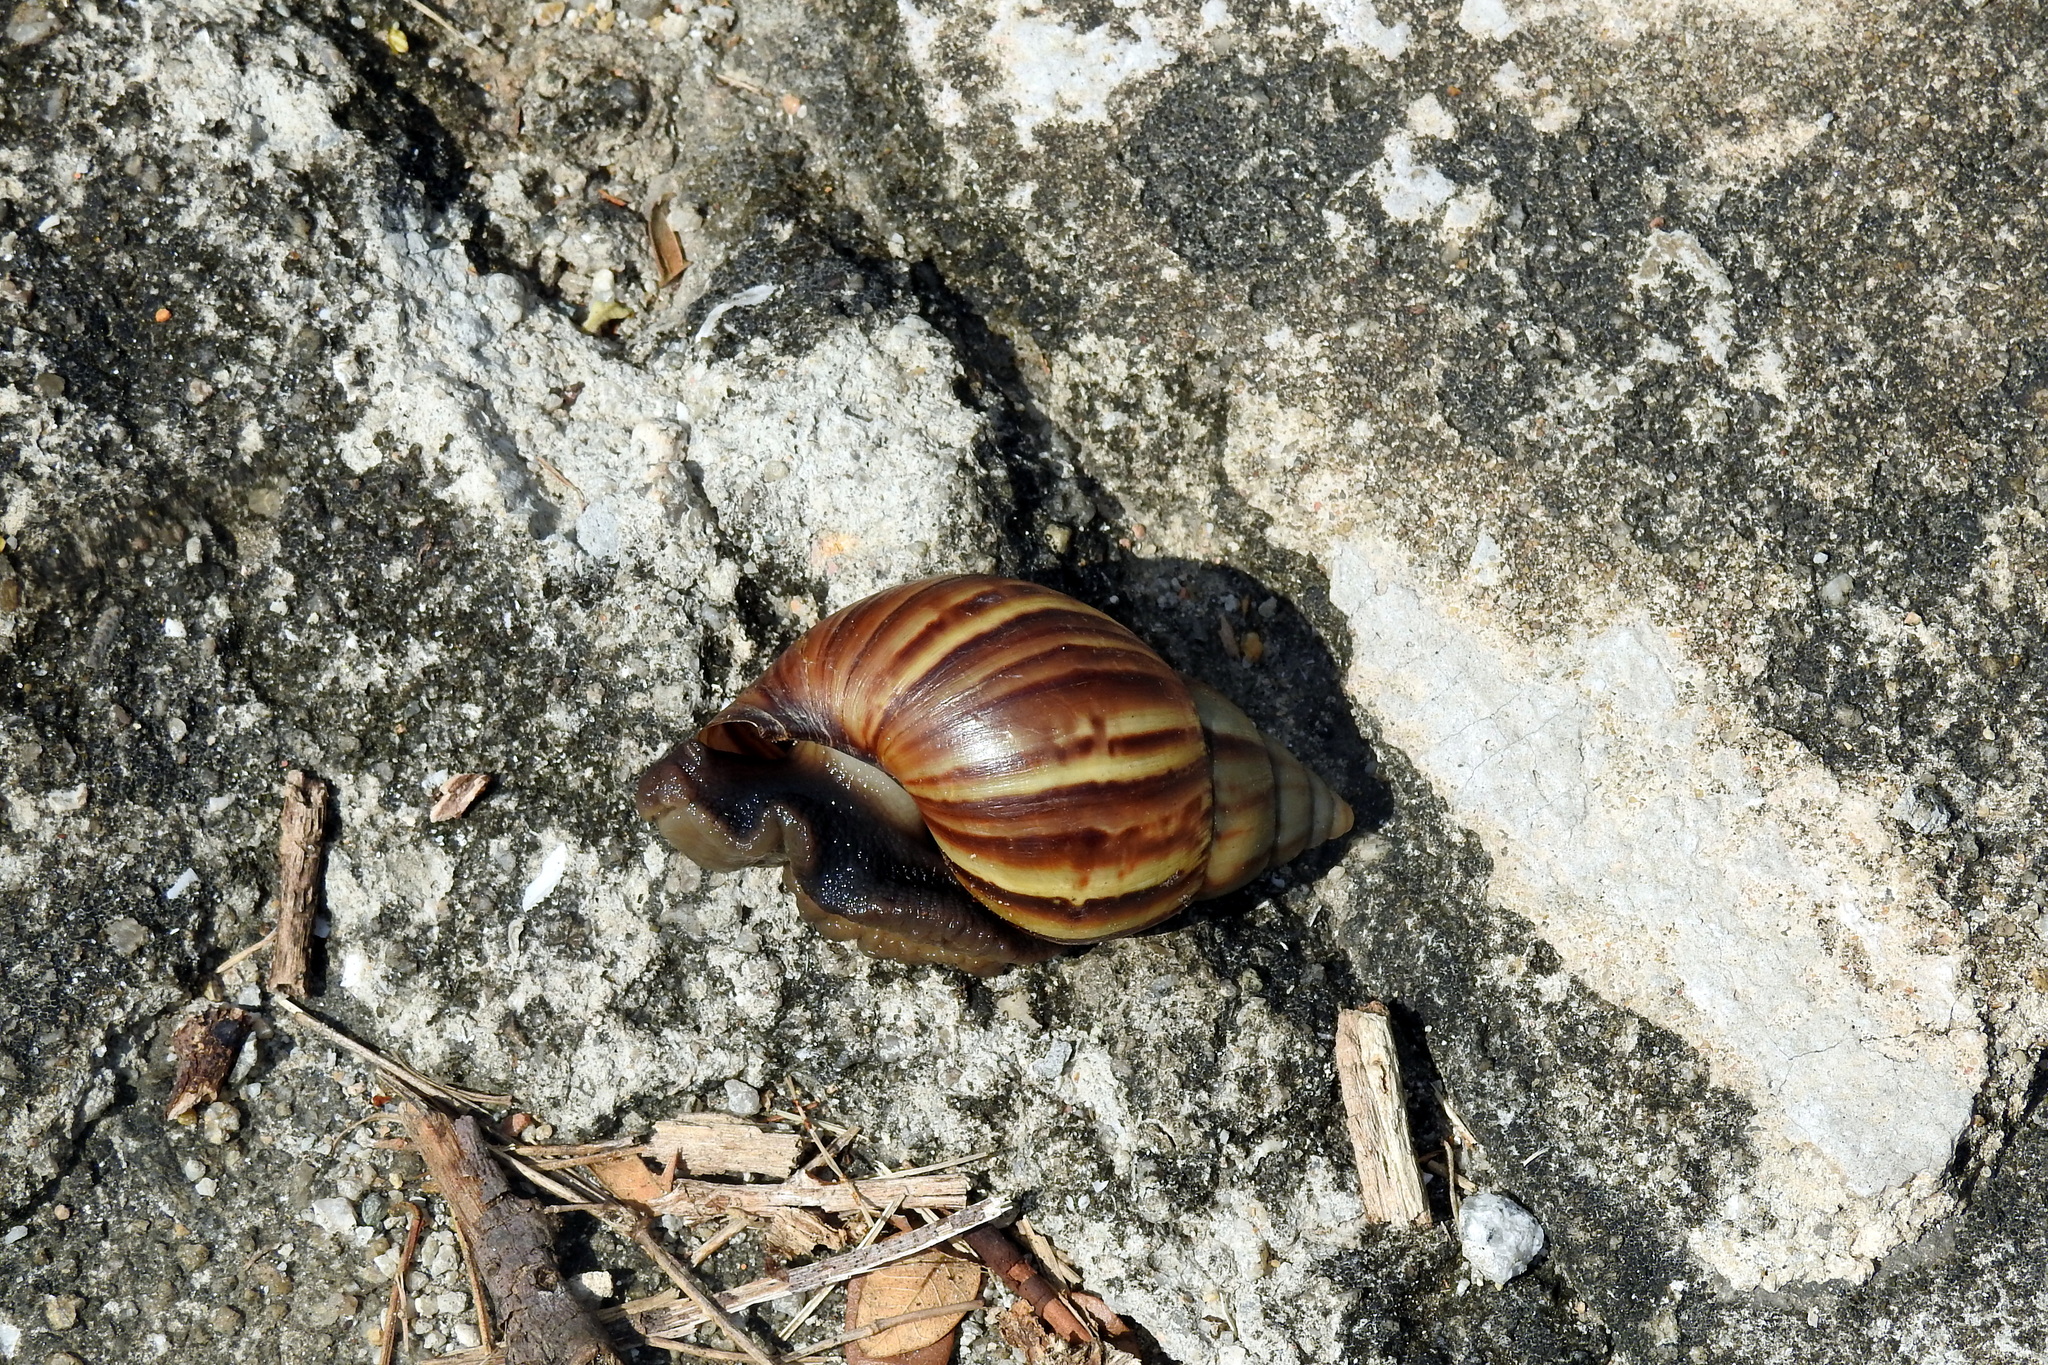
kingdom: Animalia
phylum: Mollusca
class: Gastropoda
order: Stylommatophora
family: Achatinidae
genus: Lissachatina
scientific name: Lissachatina fulica
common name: Giant african snail
